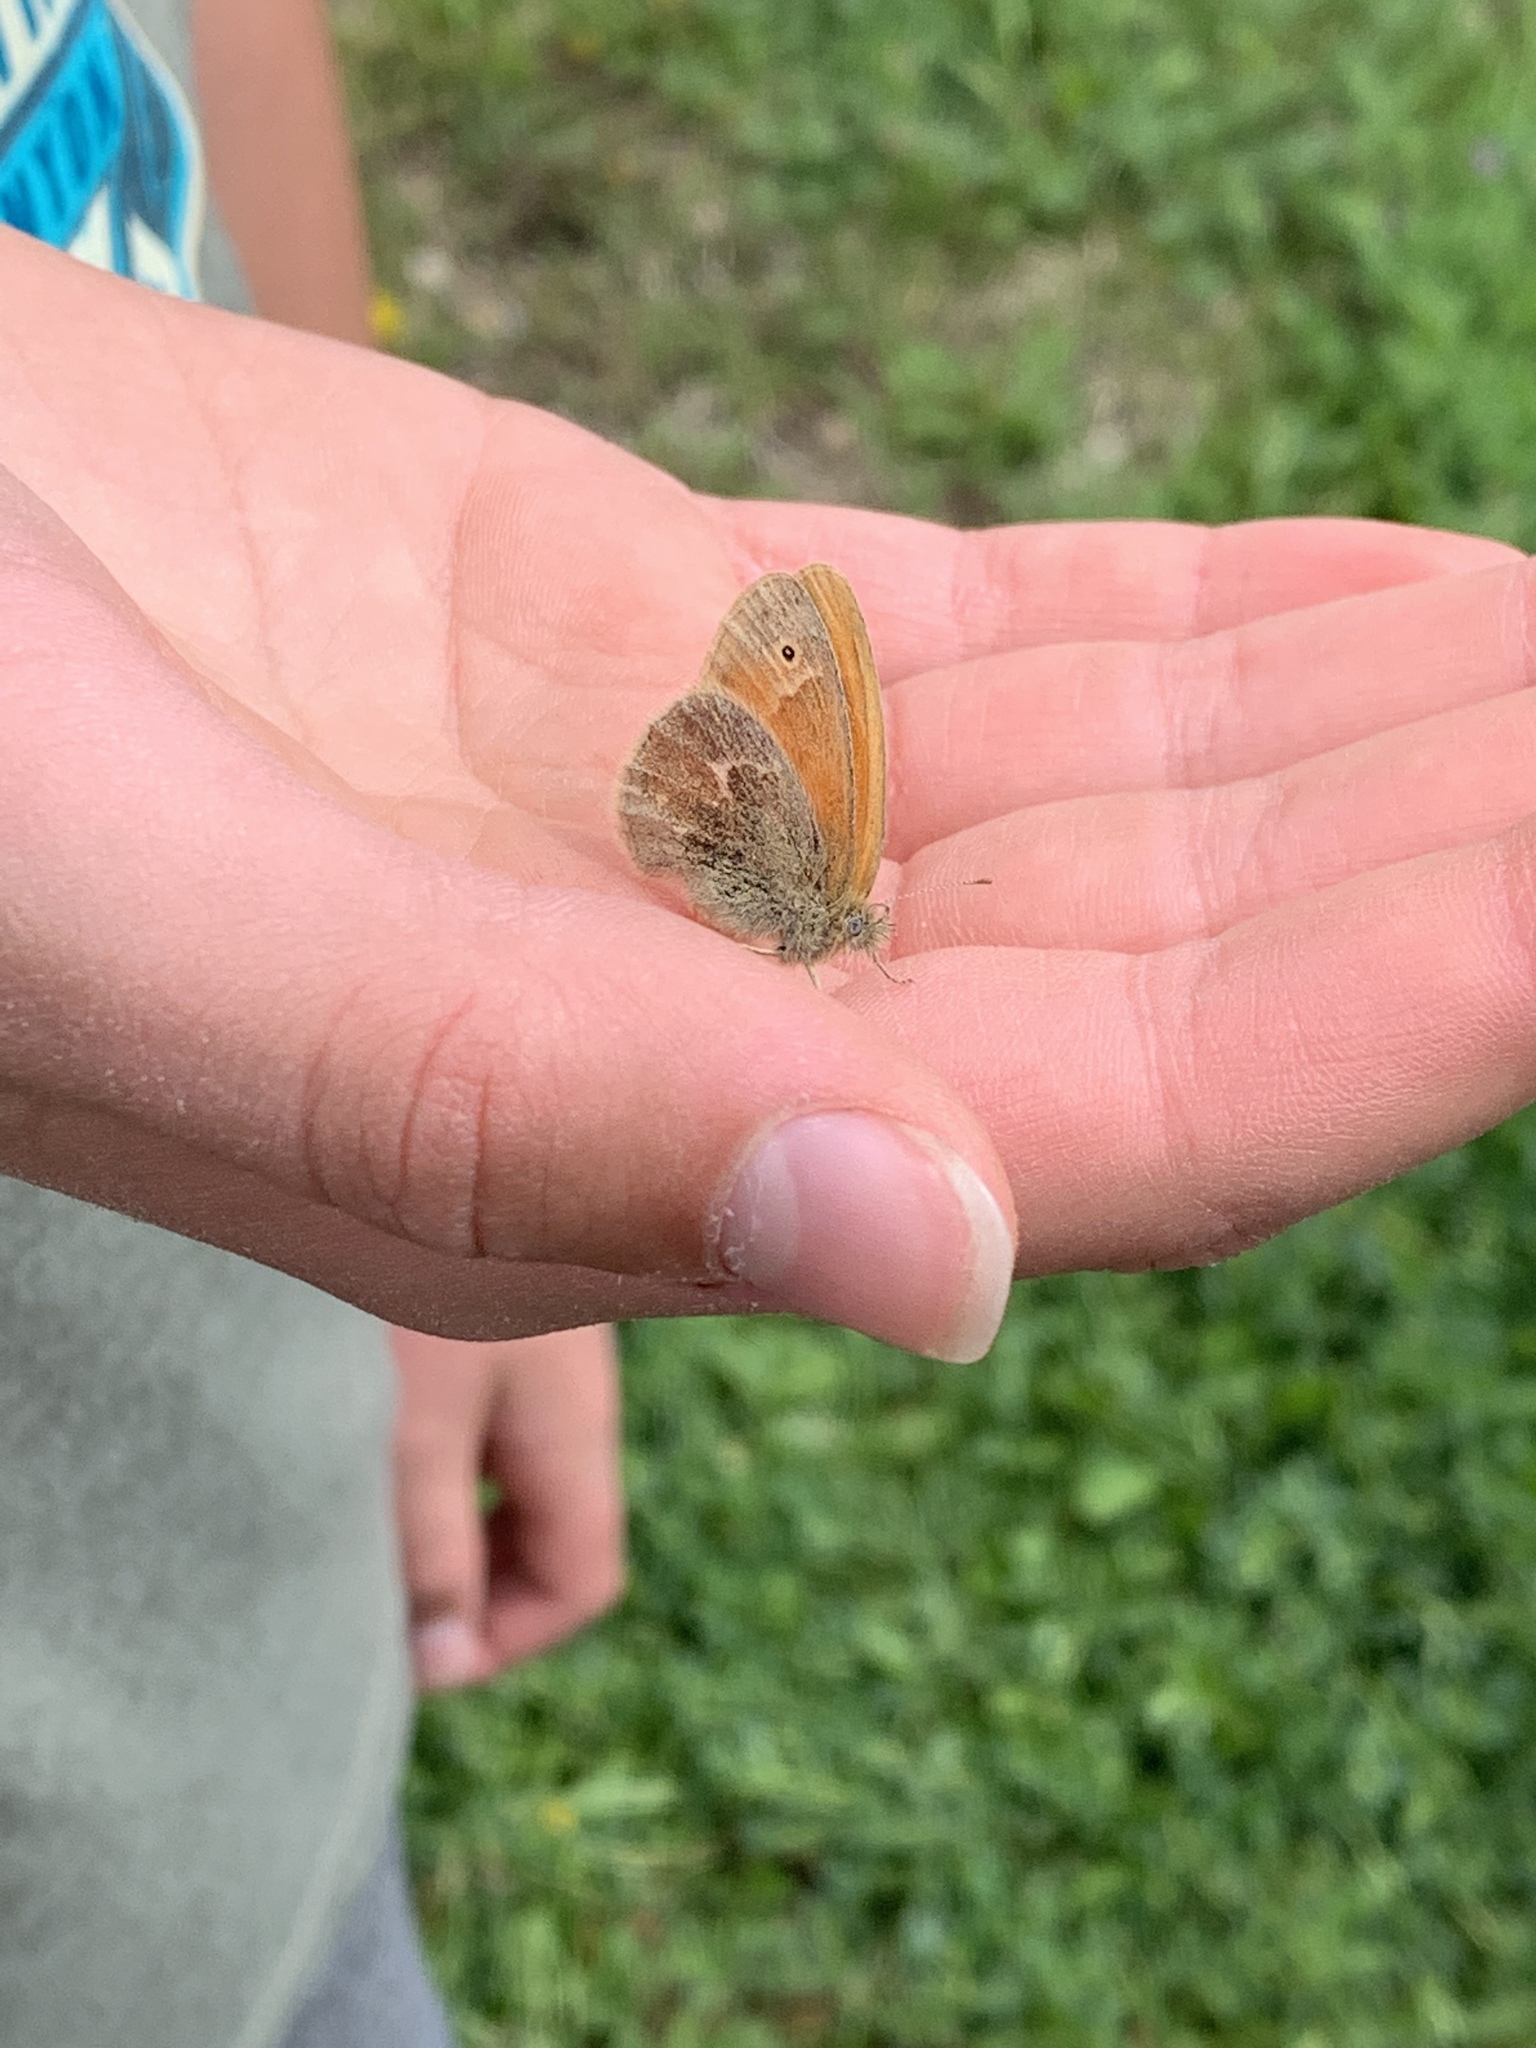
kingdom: Animalia
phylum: Arthropoda
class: Insecta
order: Lepidoptera
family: Nymphalidae
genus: Coenonympha
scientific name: Coenonympha california
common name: Common ringlet
